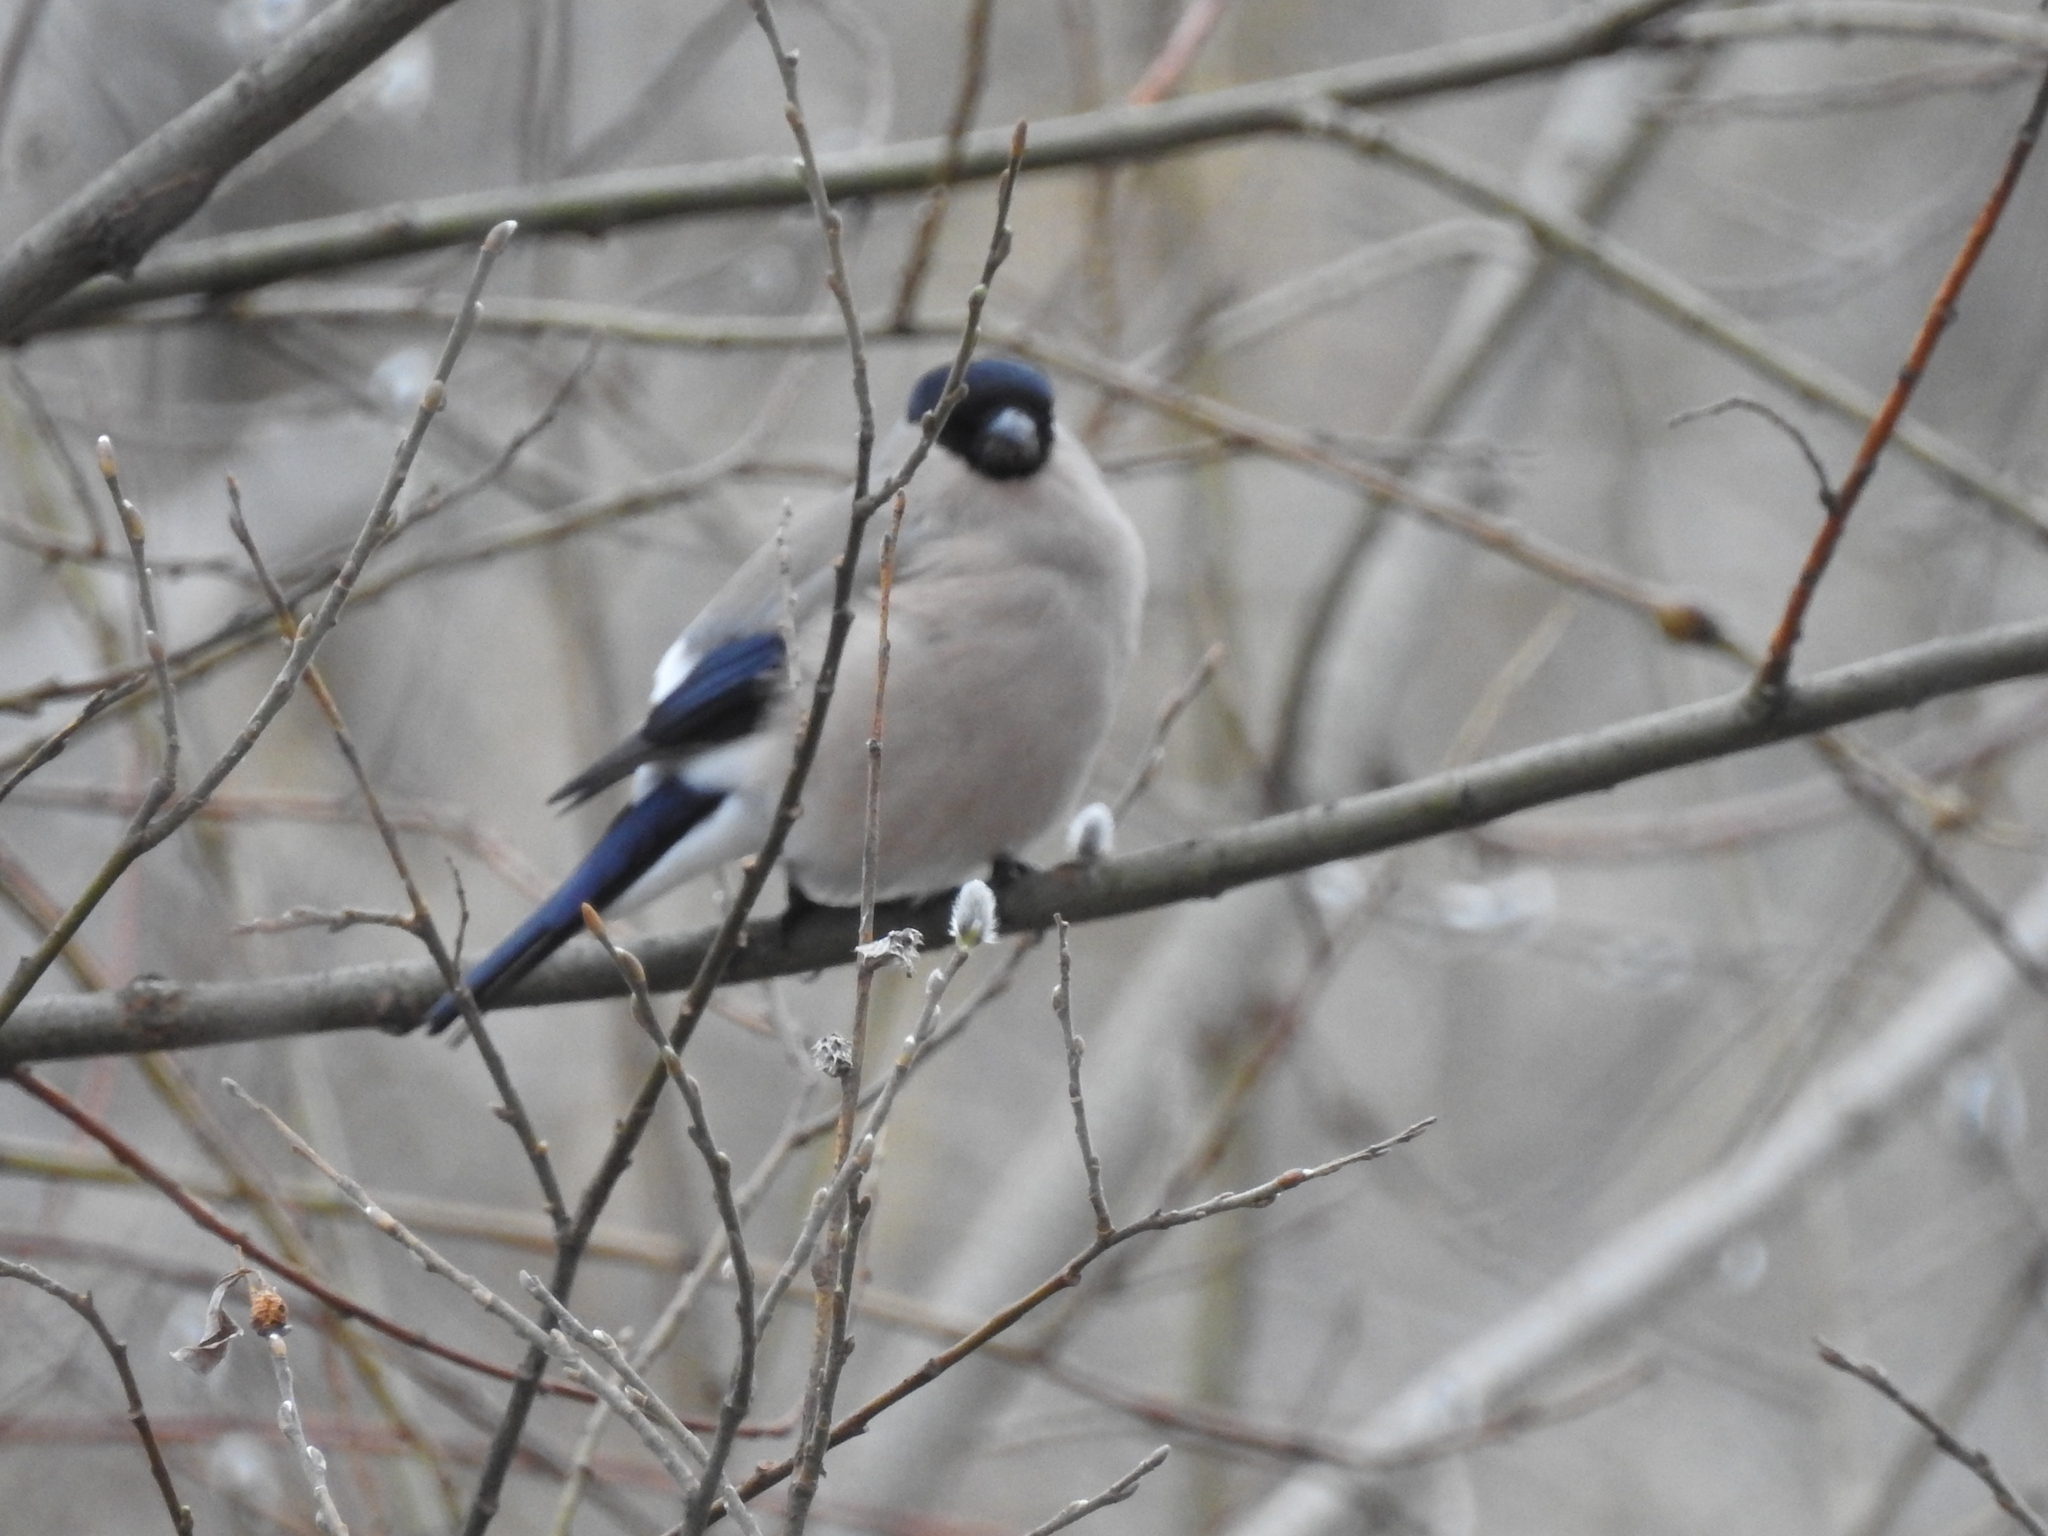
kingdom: Animalia
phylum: Chordata
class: Aves
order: Passeriformes
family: Fringillidae
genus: Pyrrhula
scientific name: Pyrrhula pyrrhula
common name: Eurasian bullfinch
